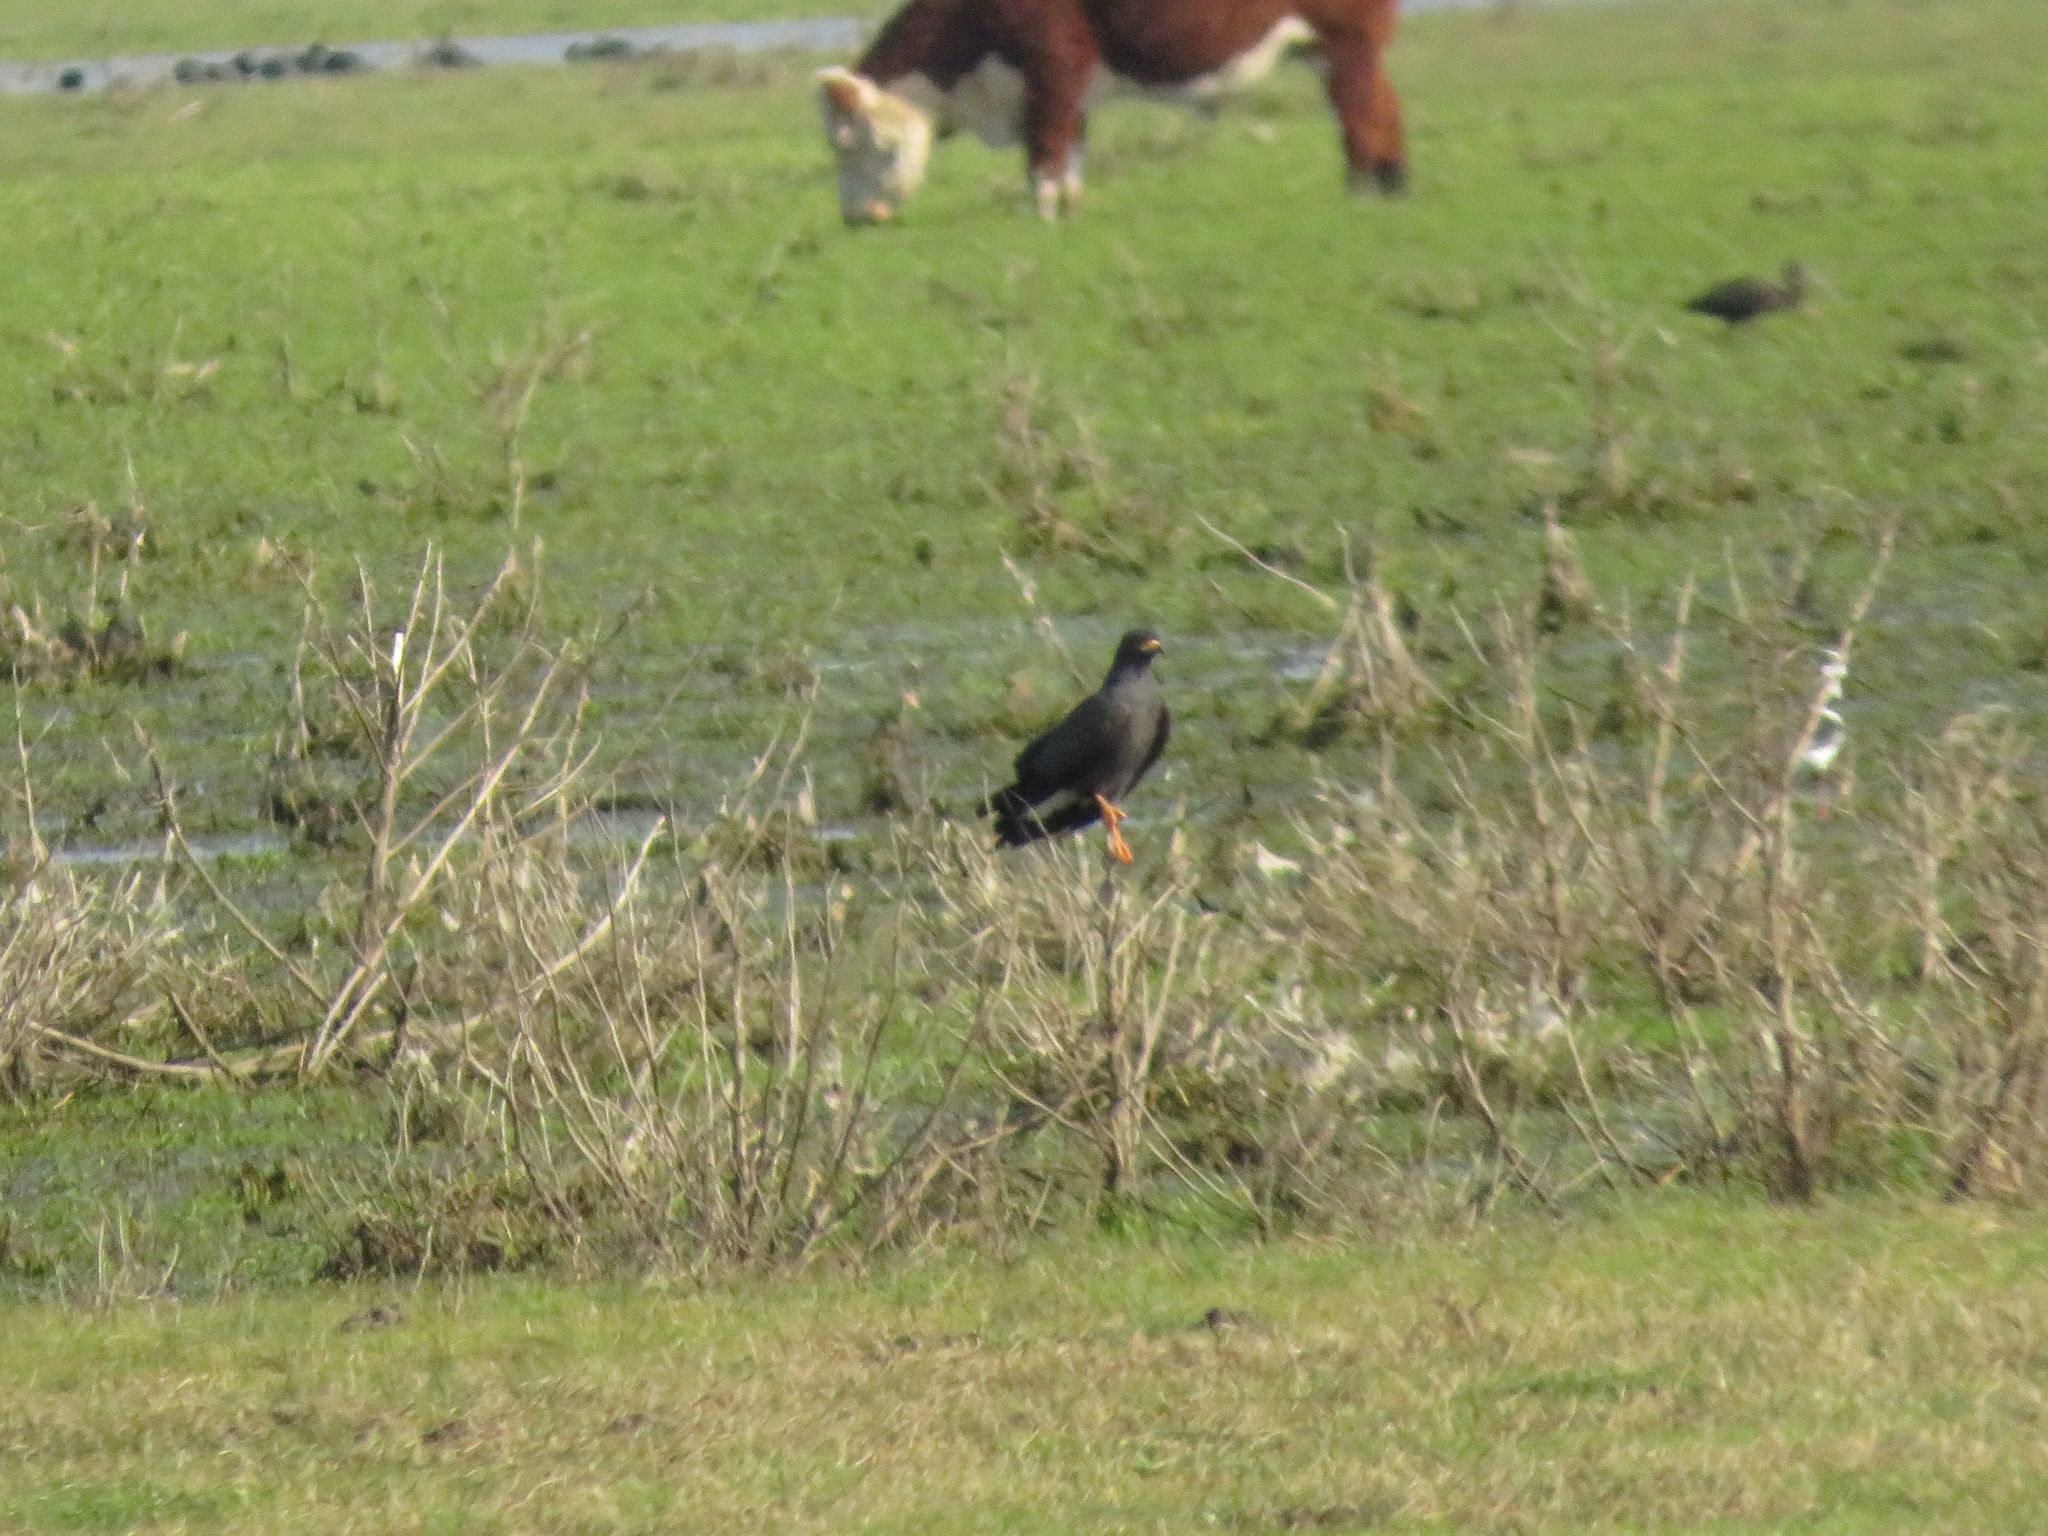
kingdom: Animalia
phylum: Chordata
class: Aves
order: Accipitriformes
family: Accipitridae
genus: Rostrhamus
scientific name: Rostrhamus sociabilis
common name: Snail kite
